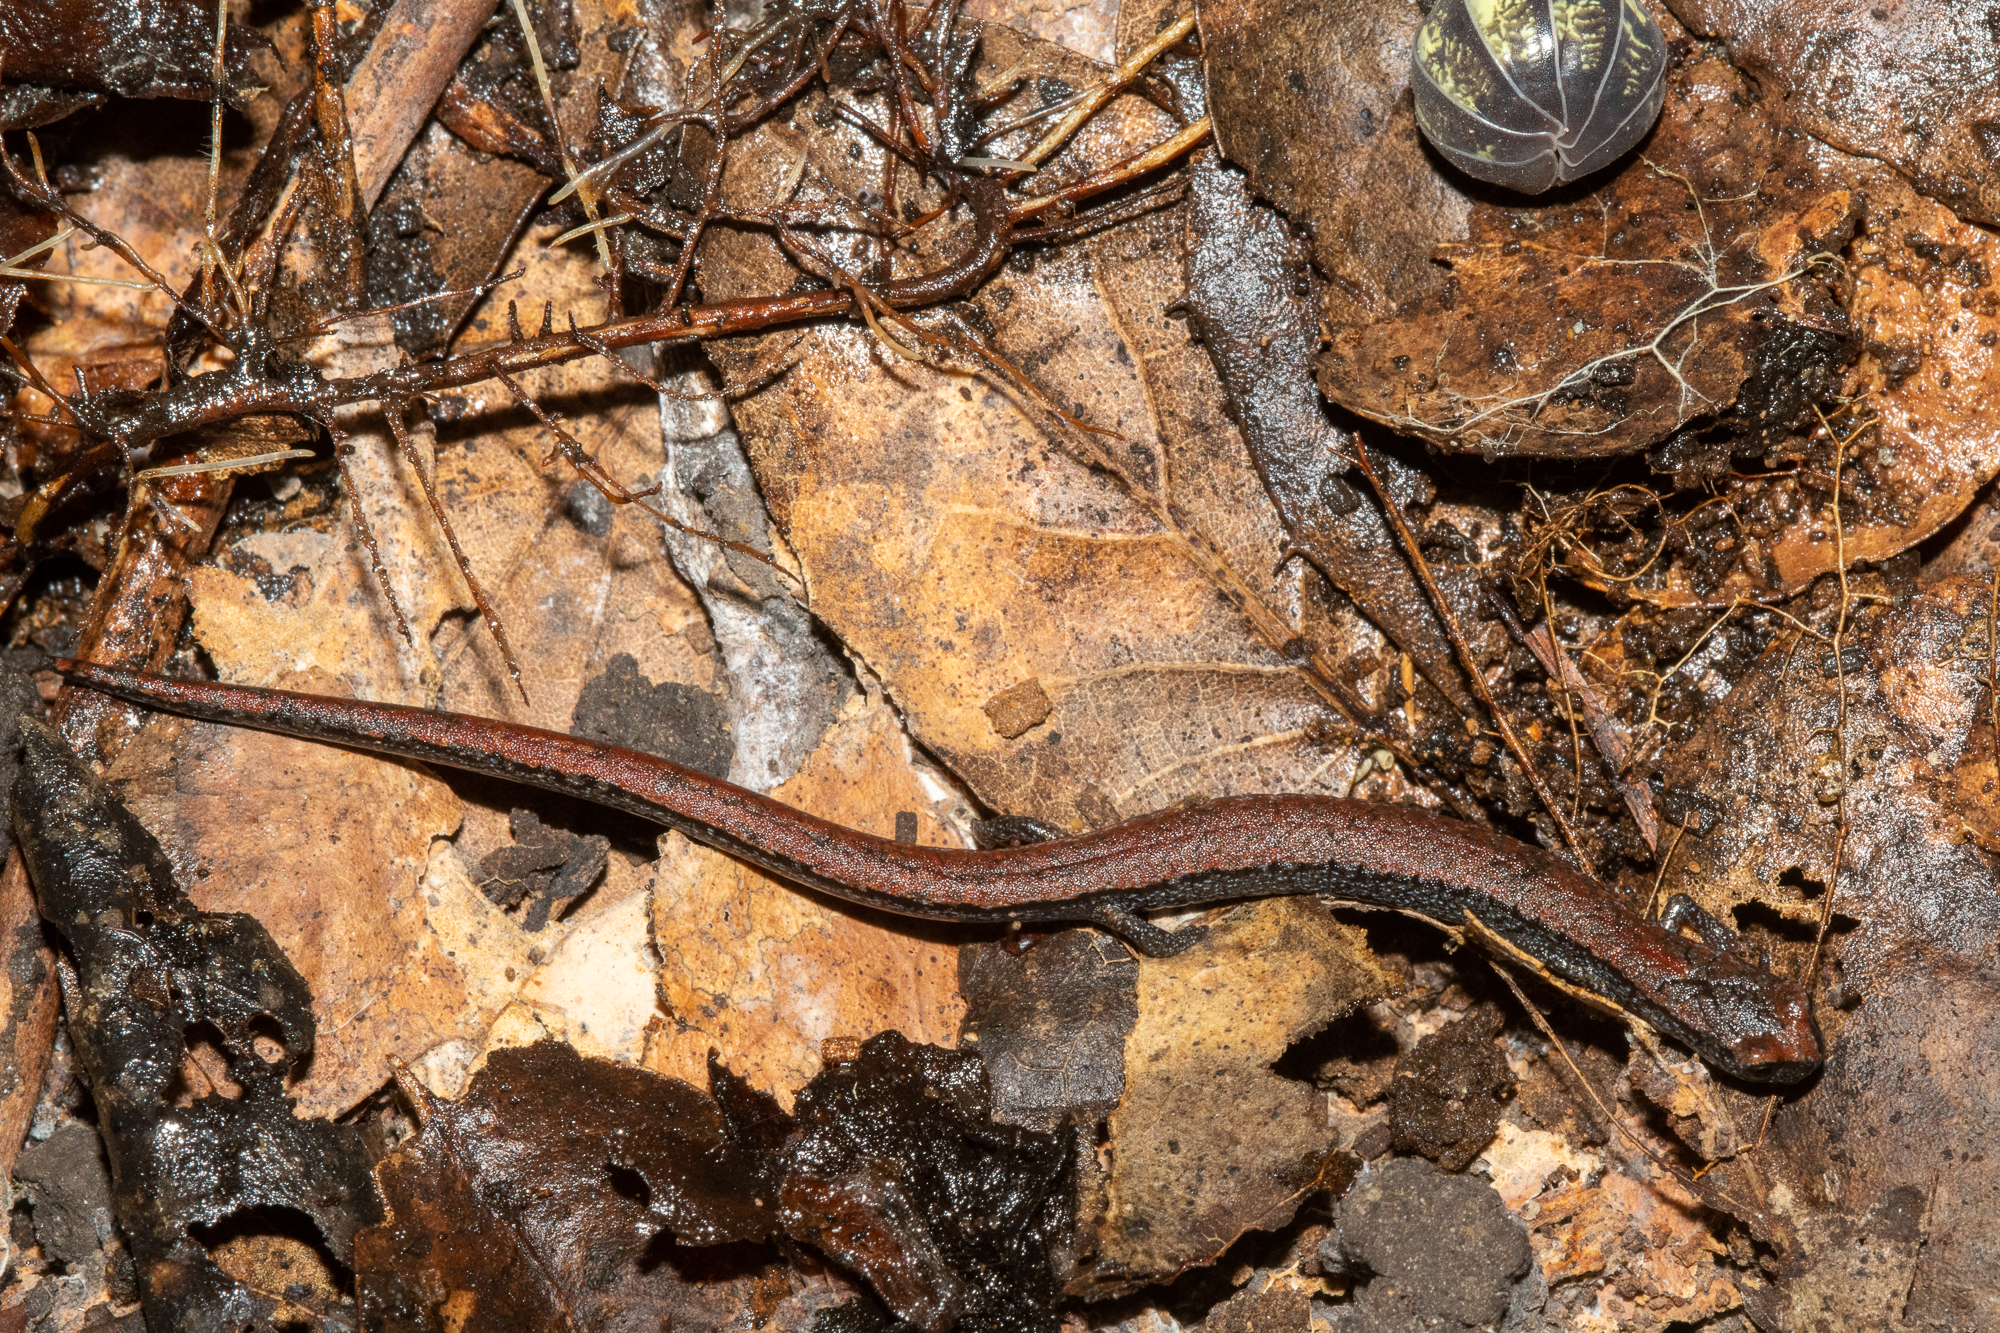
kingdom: Animalia
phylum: Chordata
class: Amphibia
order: Caudata
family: Plethodontidae
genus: Batrachoseps
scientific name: Batrachoseps attenuatus
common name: California slender salamander
